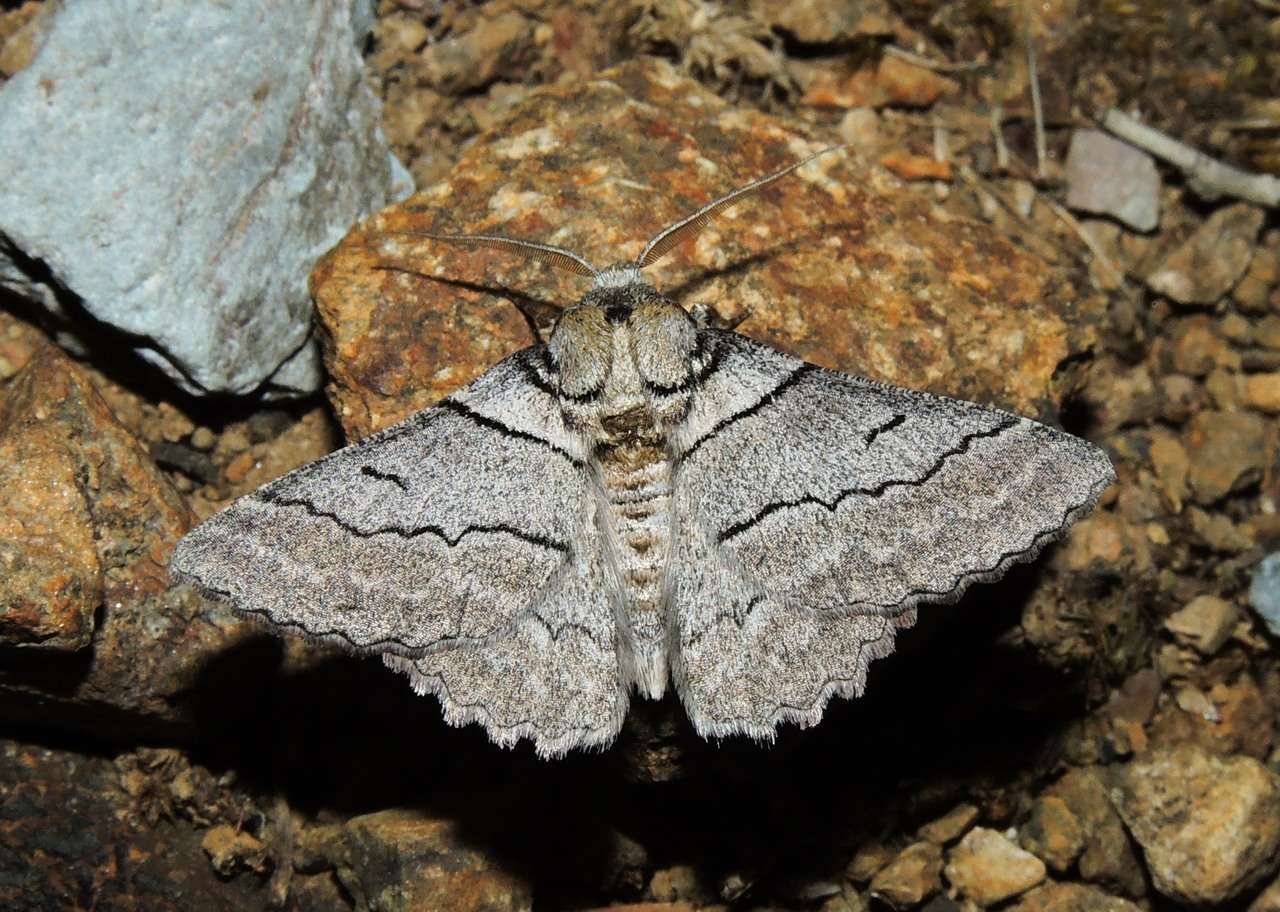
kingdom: Animalia
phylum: Arthropoda
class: Insecta
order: Lepidoptera
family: Geometridae
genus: Hypobapta
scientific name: Hypobapta tachyhalotaria
